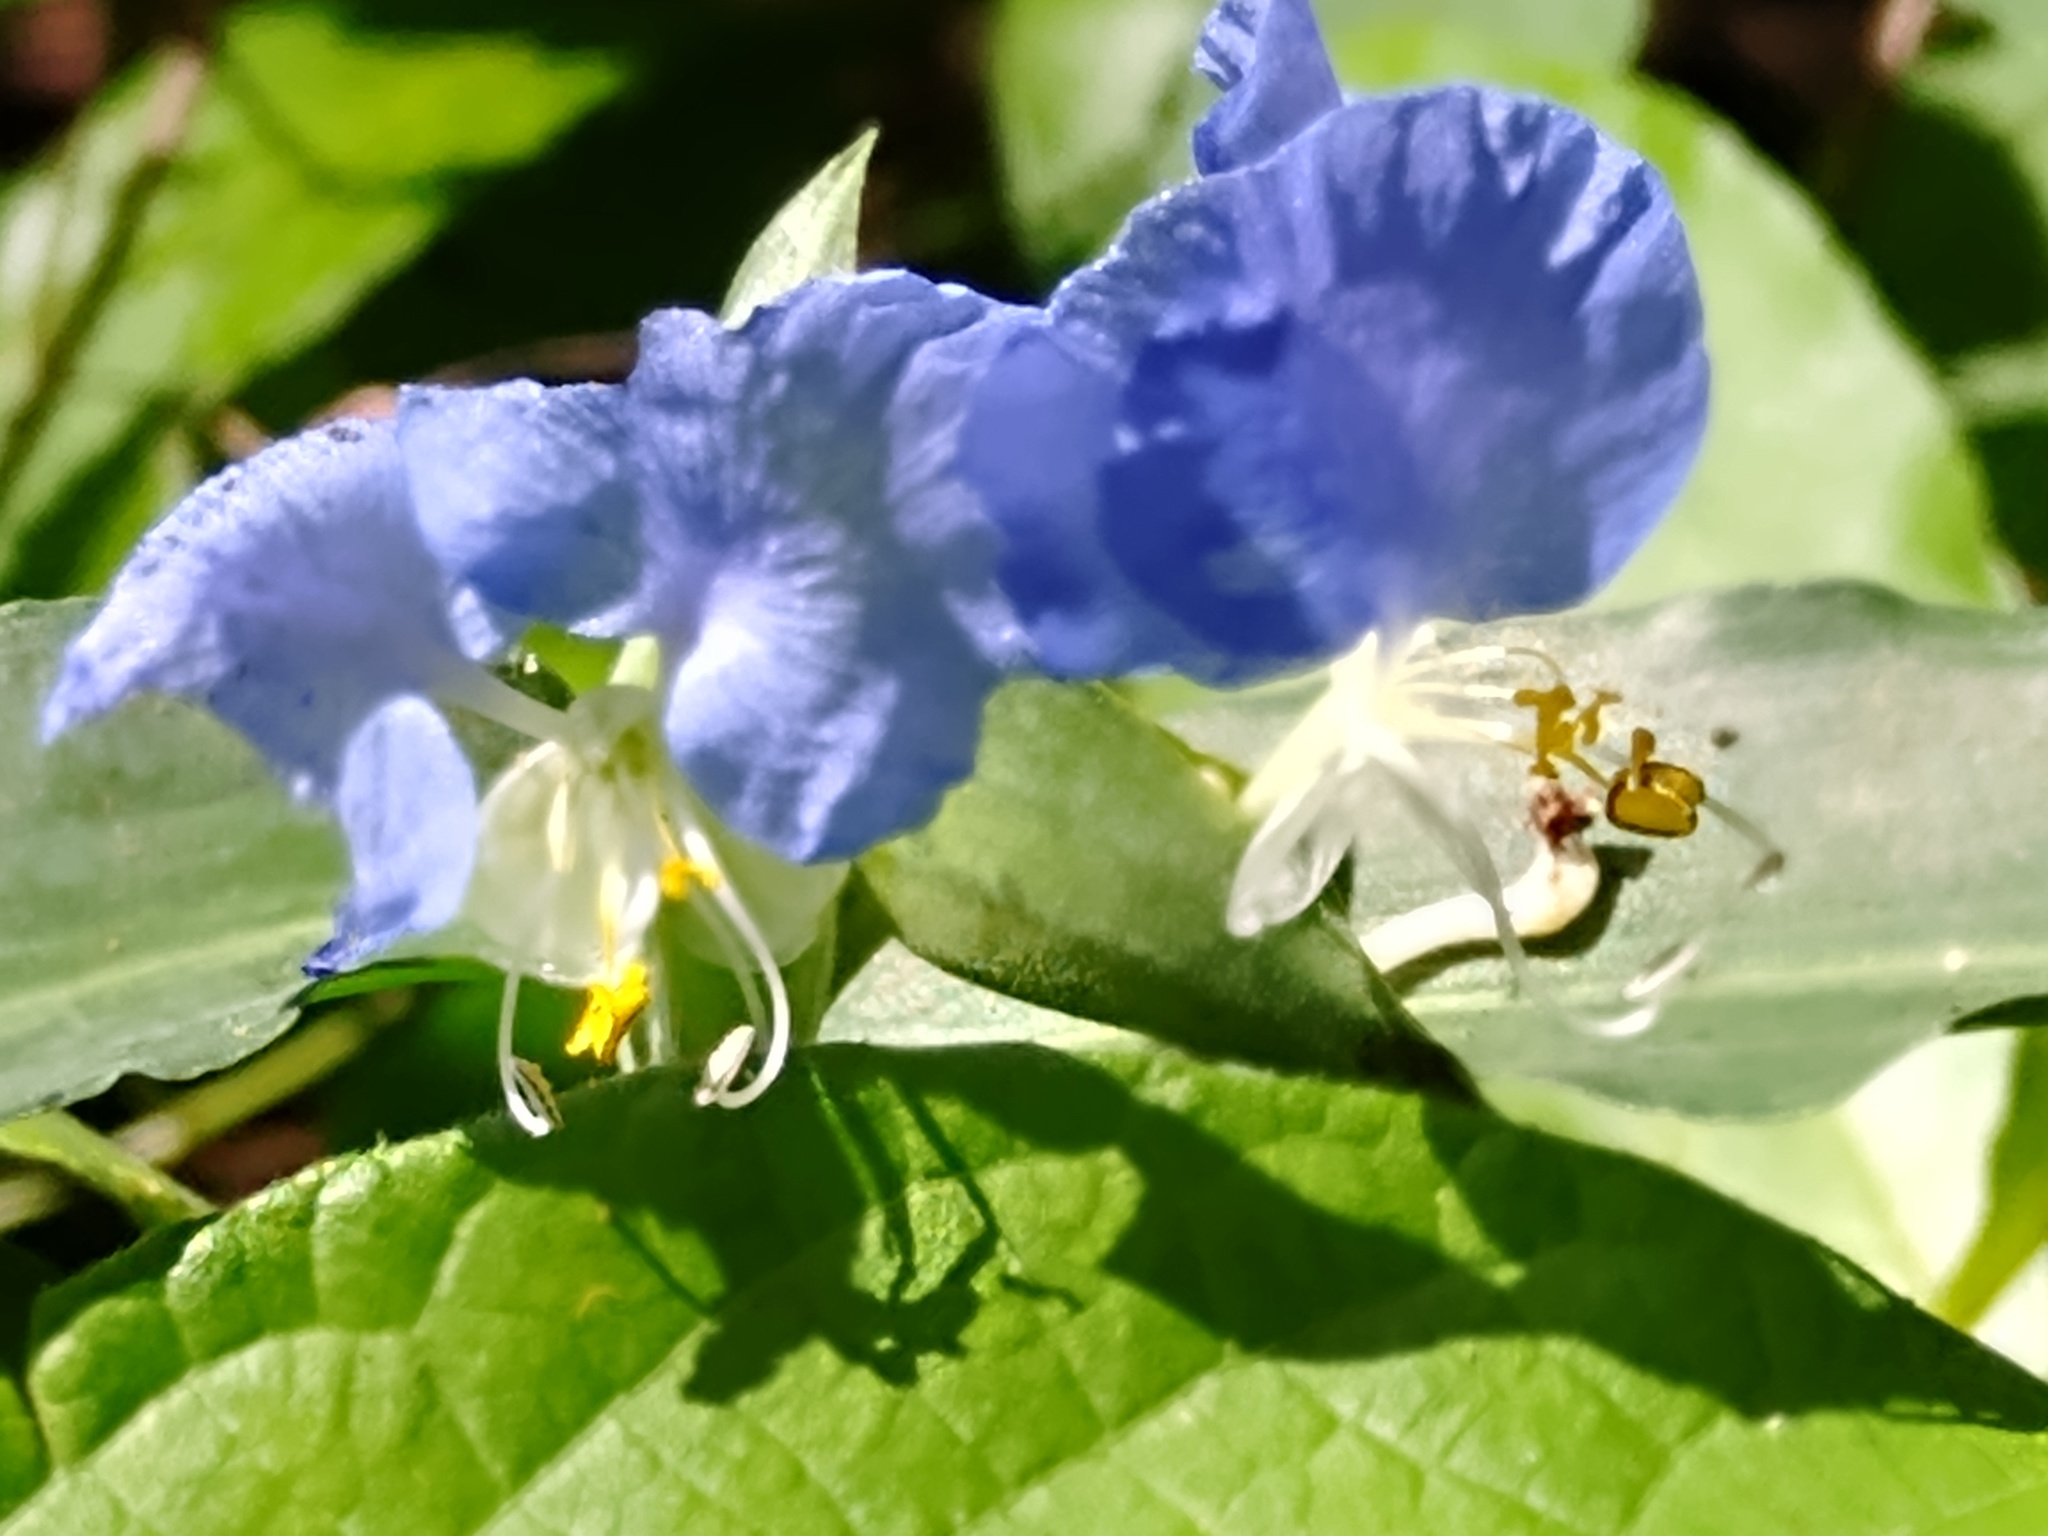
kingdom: Plantae
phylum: Tracheophyta
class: Liliopsida
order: Commelinales
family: Commelinaceae
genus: Commelina
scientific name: Commelina erecta
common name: Blousel blommetjie
